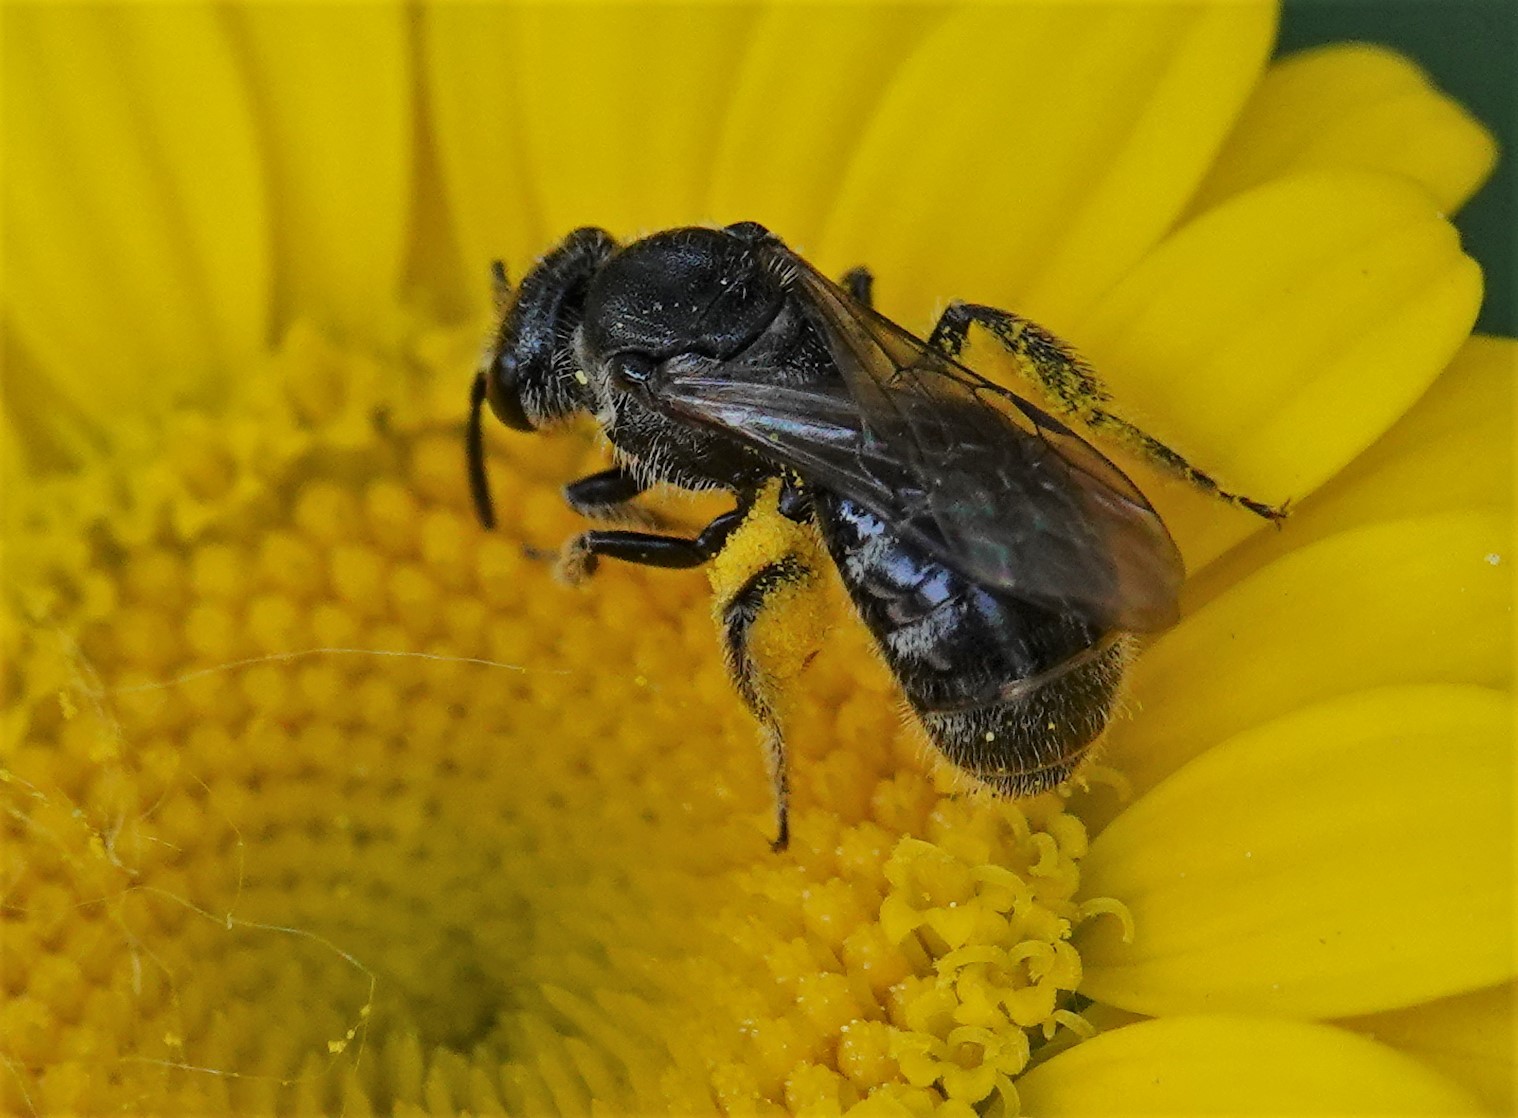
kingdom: Animalia
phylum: Arthropoda
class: Insecta
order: Hymenoptera
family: Halictidae
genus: Lasioglossum
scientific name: Lasioglossum pectorale
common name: Rugose-chested sweat bee
